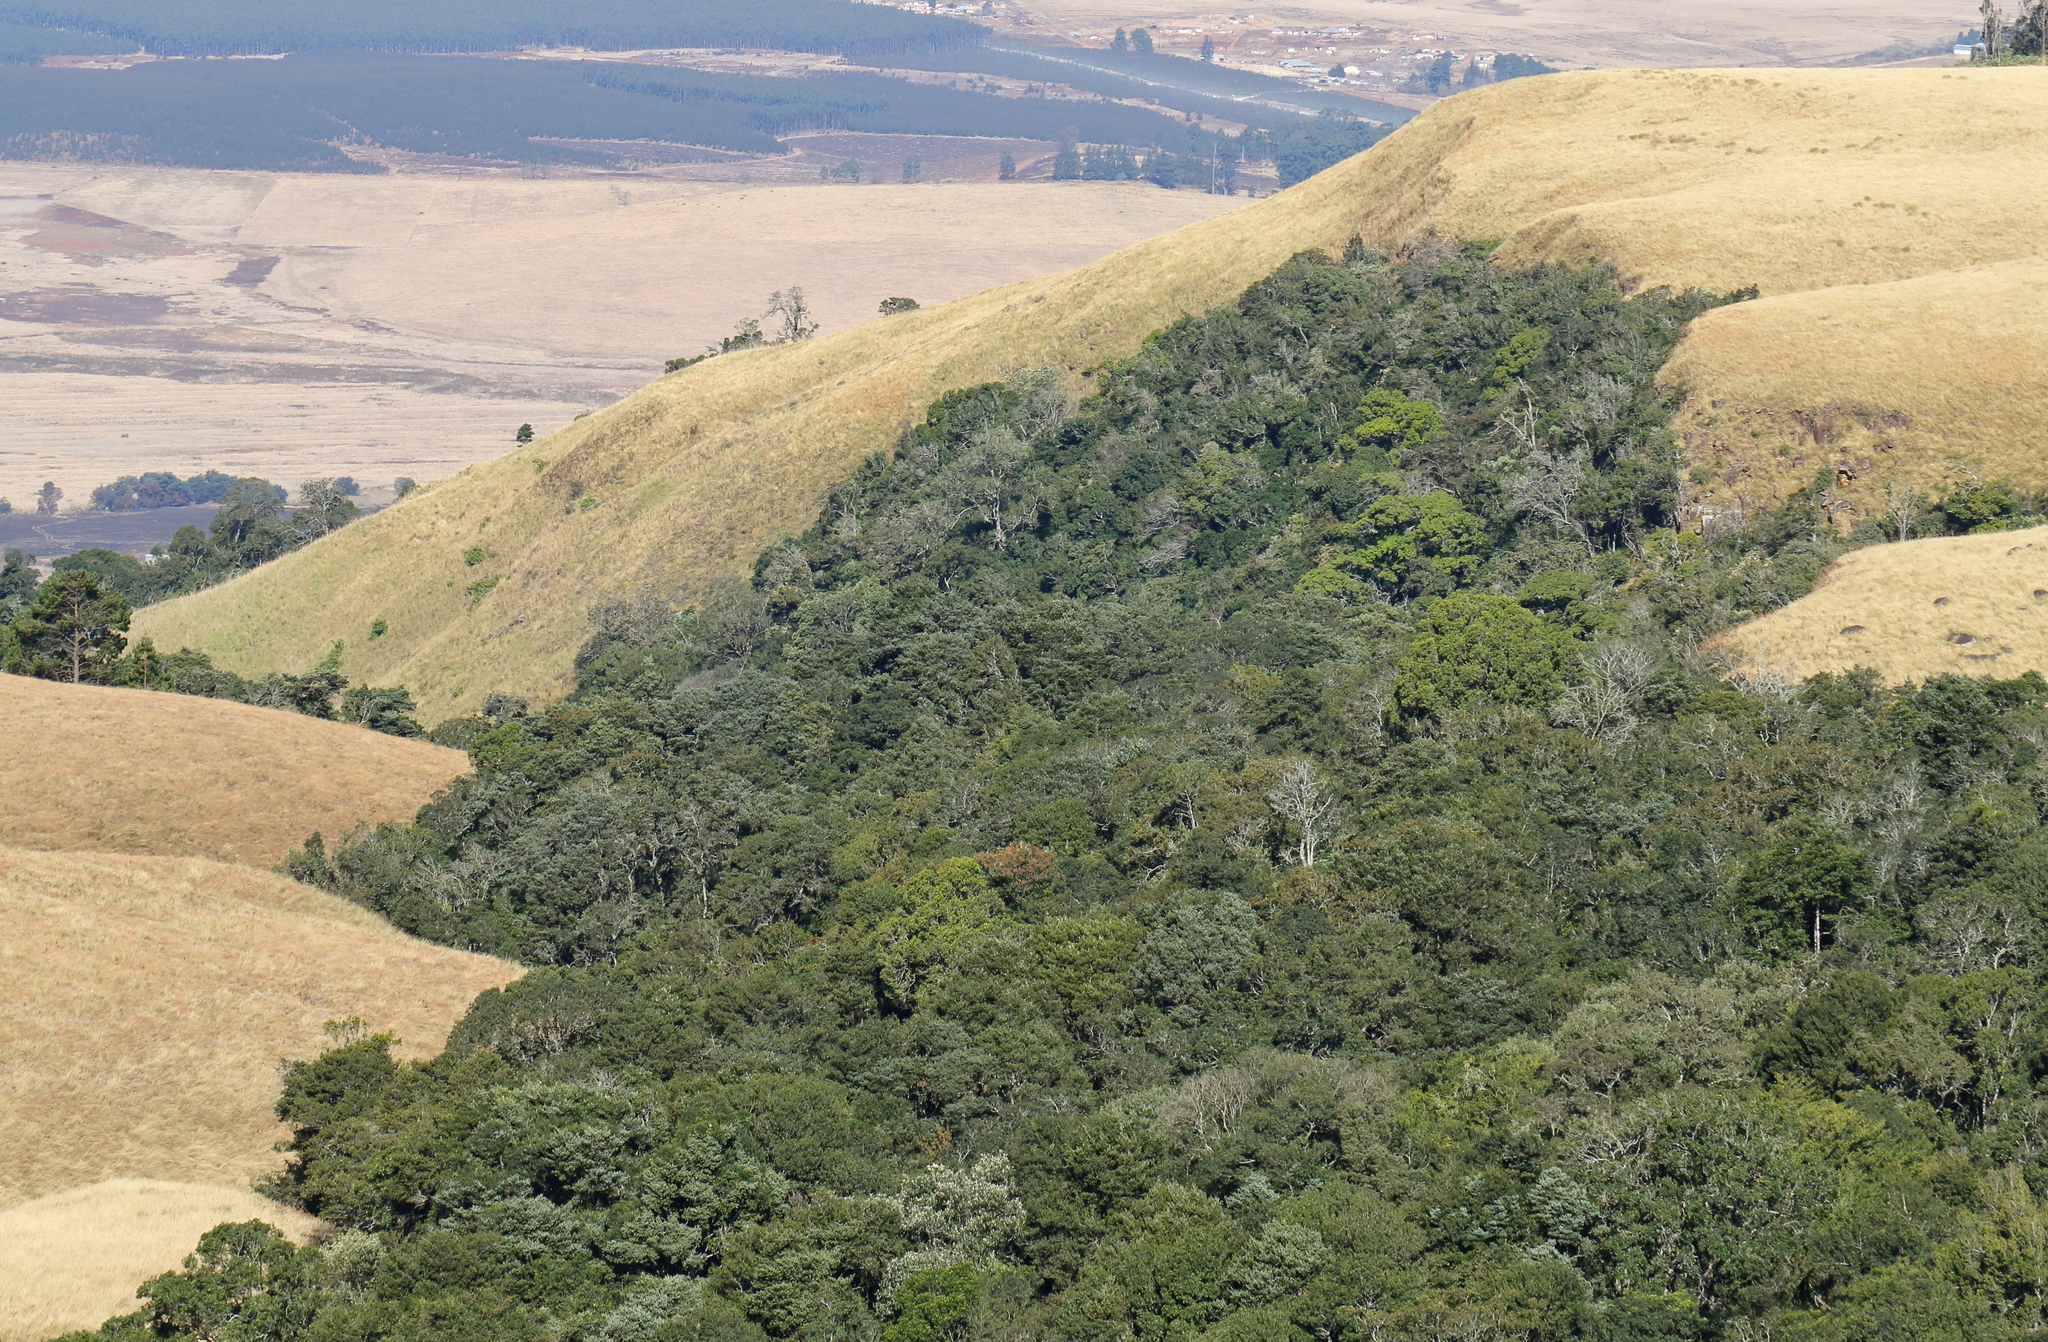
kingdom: Plantae
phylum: Tracheophyta
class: Magnoliopsida
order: Lamiales
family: Stilbaceae
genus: Halleria
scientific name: Halleria lucida
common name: Tree fuschia
